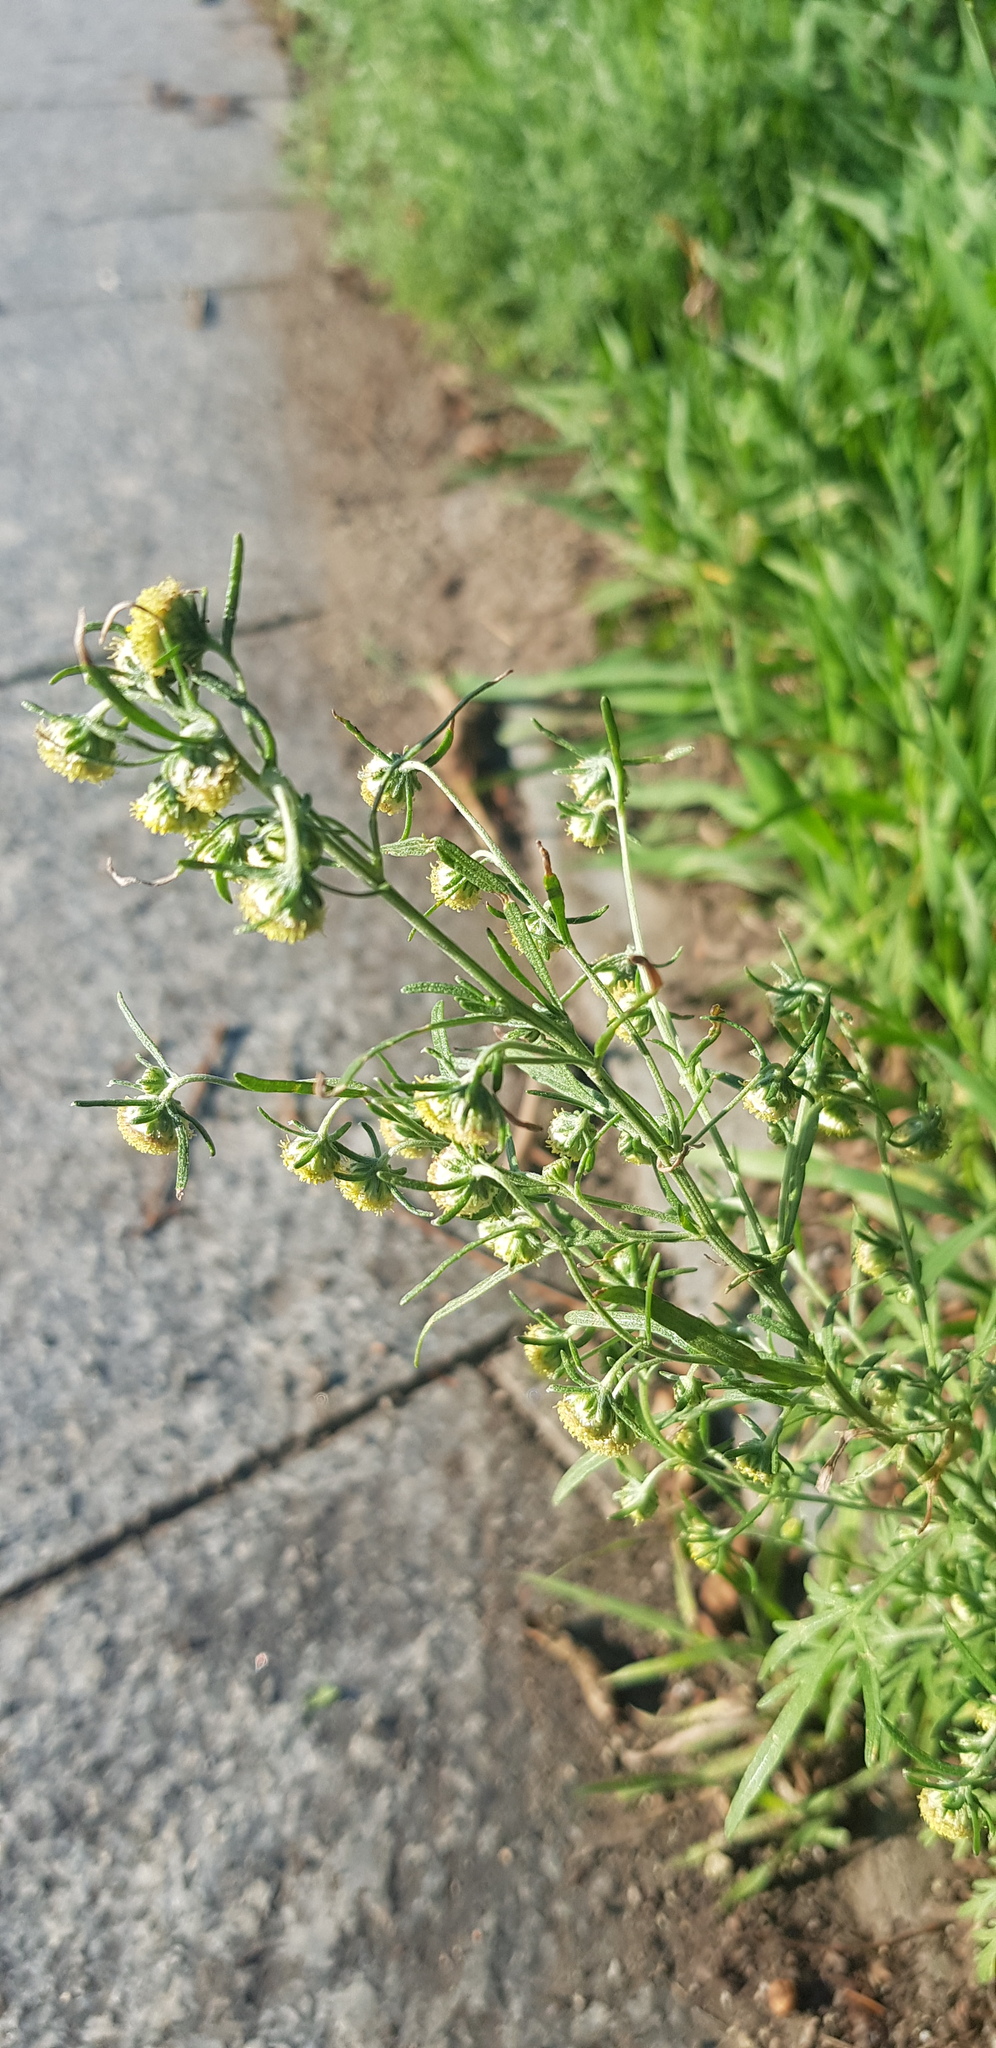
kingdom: Plantae
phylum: Tracheophyta
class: Magnoliopsida
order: Asterales
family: Asteraceae
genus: Artemisia
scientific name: Artemisia macrocephala
